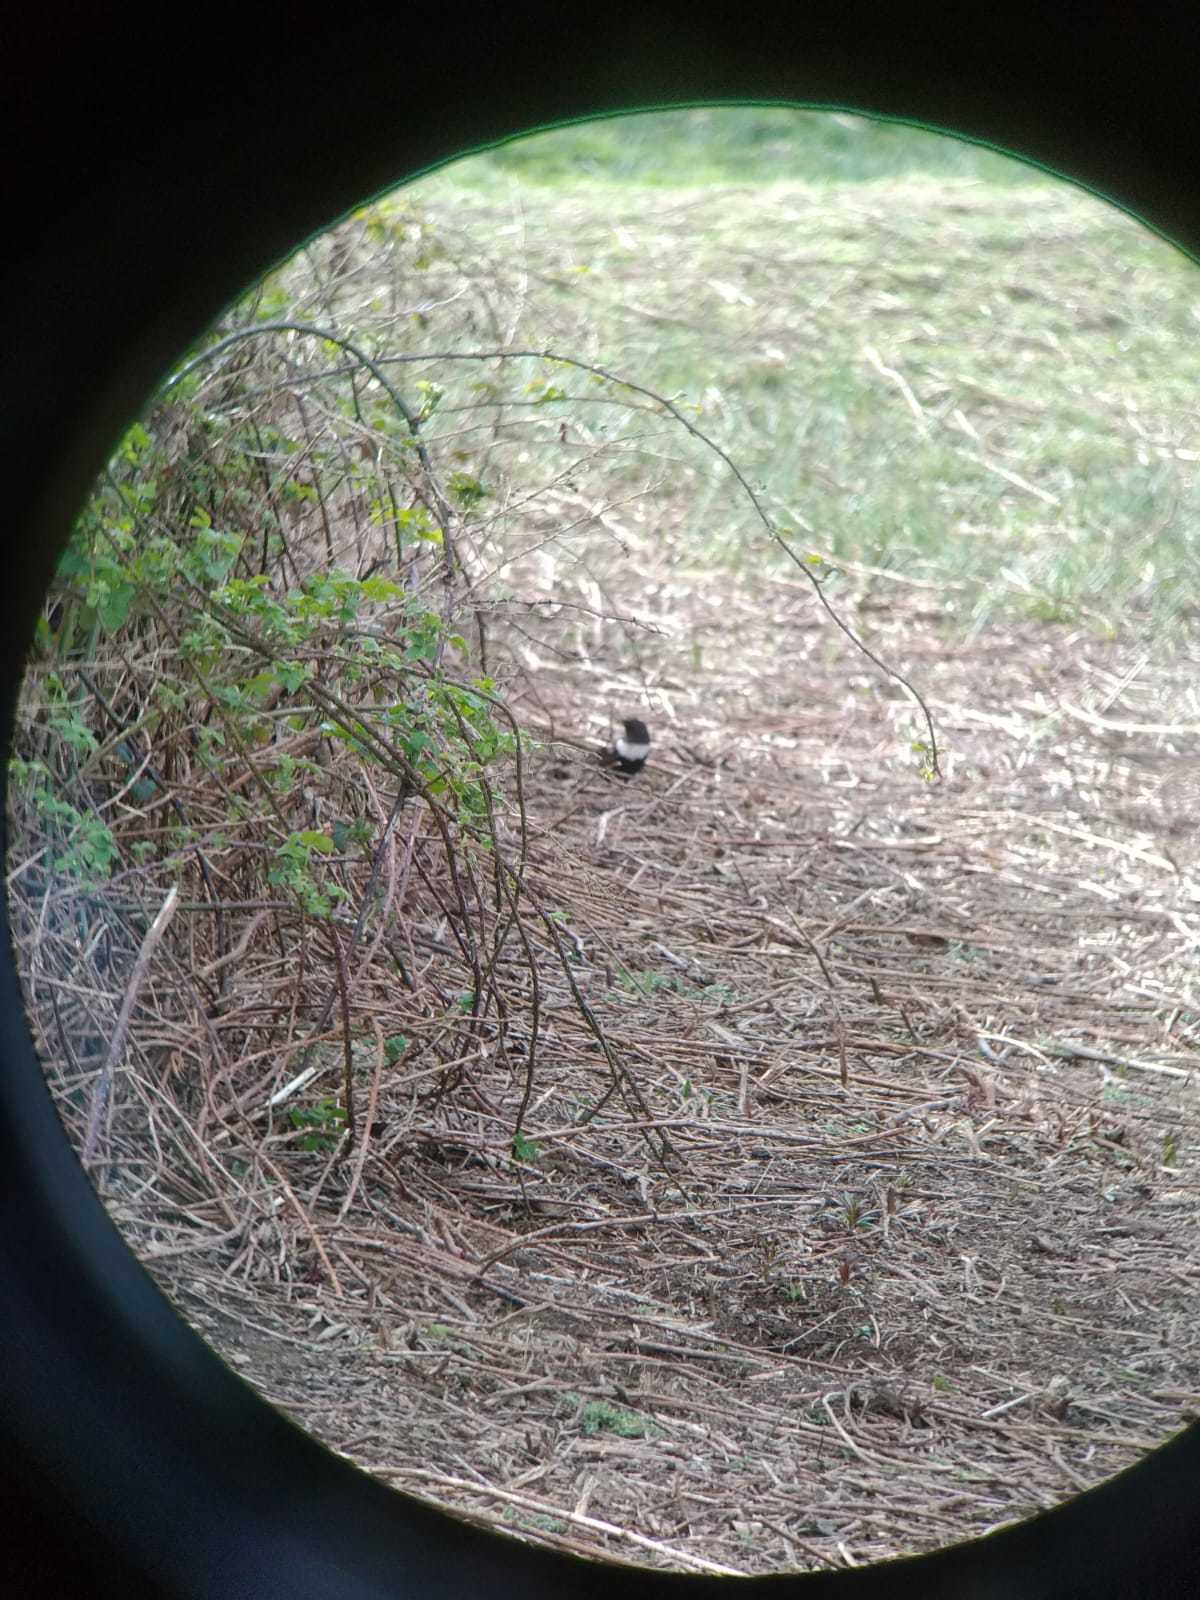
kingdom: Animalia
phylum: Chordata
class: Aves
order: Passeriformes
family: Turdidae
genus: Turdus
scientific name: Turdus torquatus
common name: Ring ouzel
